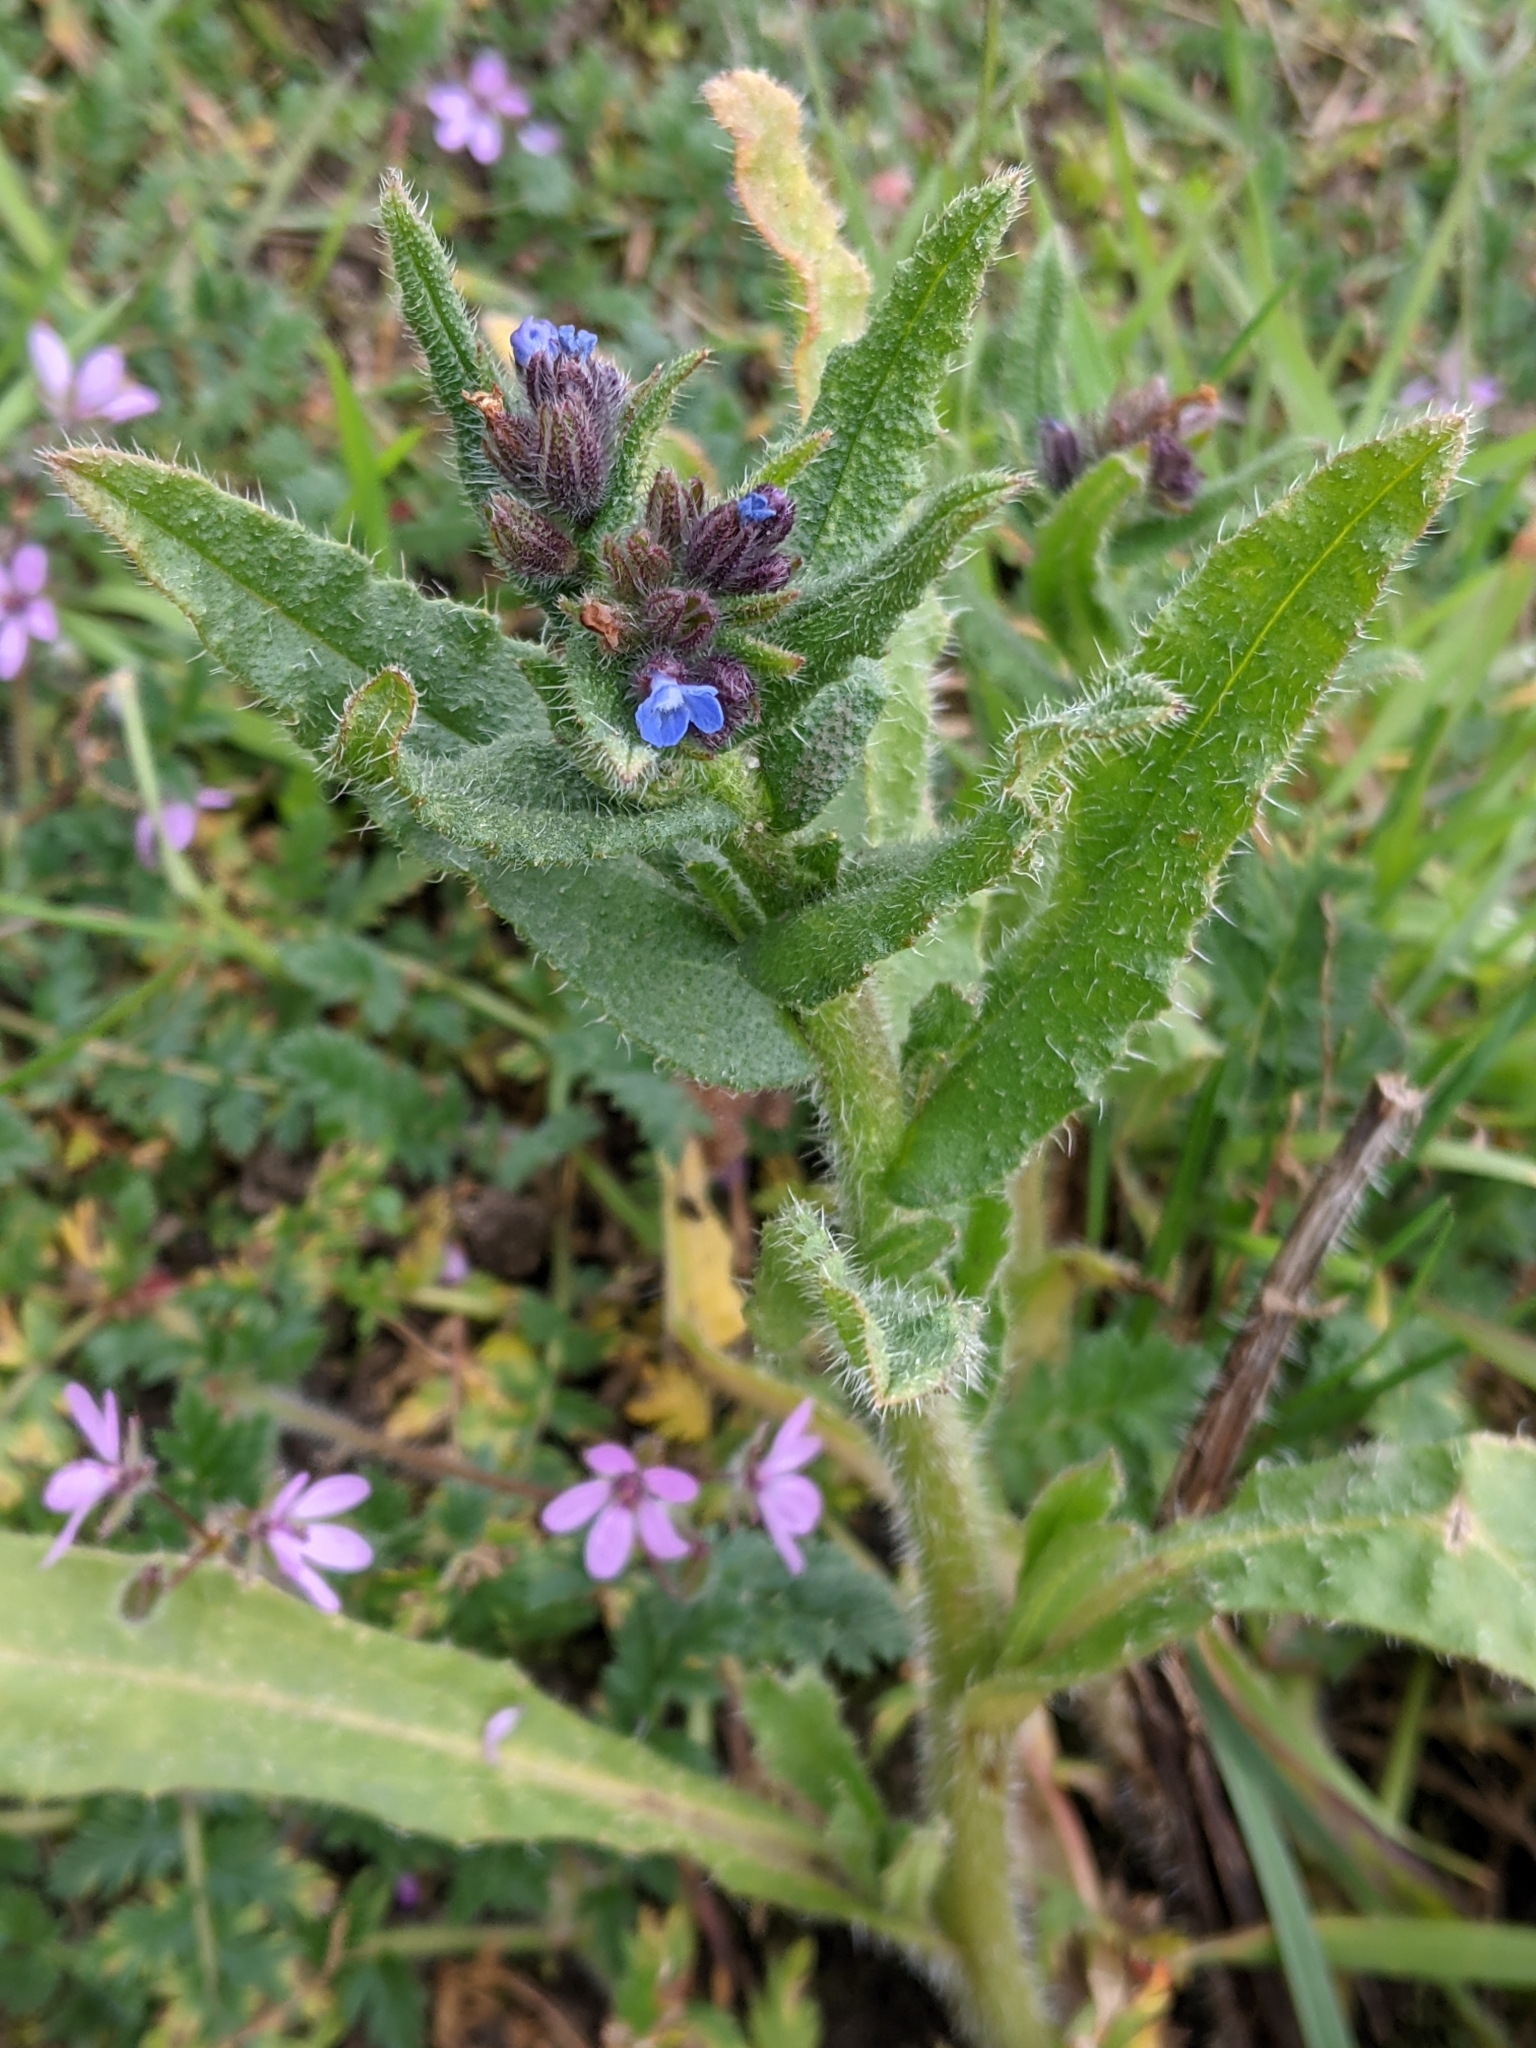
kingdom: Plantae
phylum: Tracheophyta
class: Magnoliopsida
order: Boraginales
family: Boraginaceae
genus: Lycopsis
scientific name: Lycopsis arvensis
